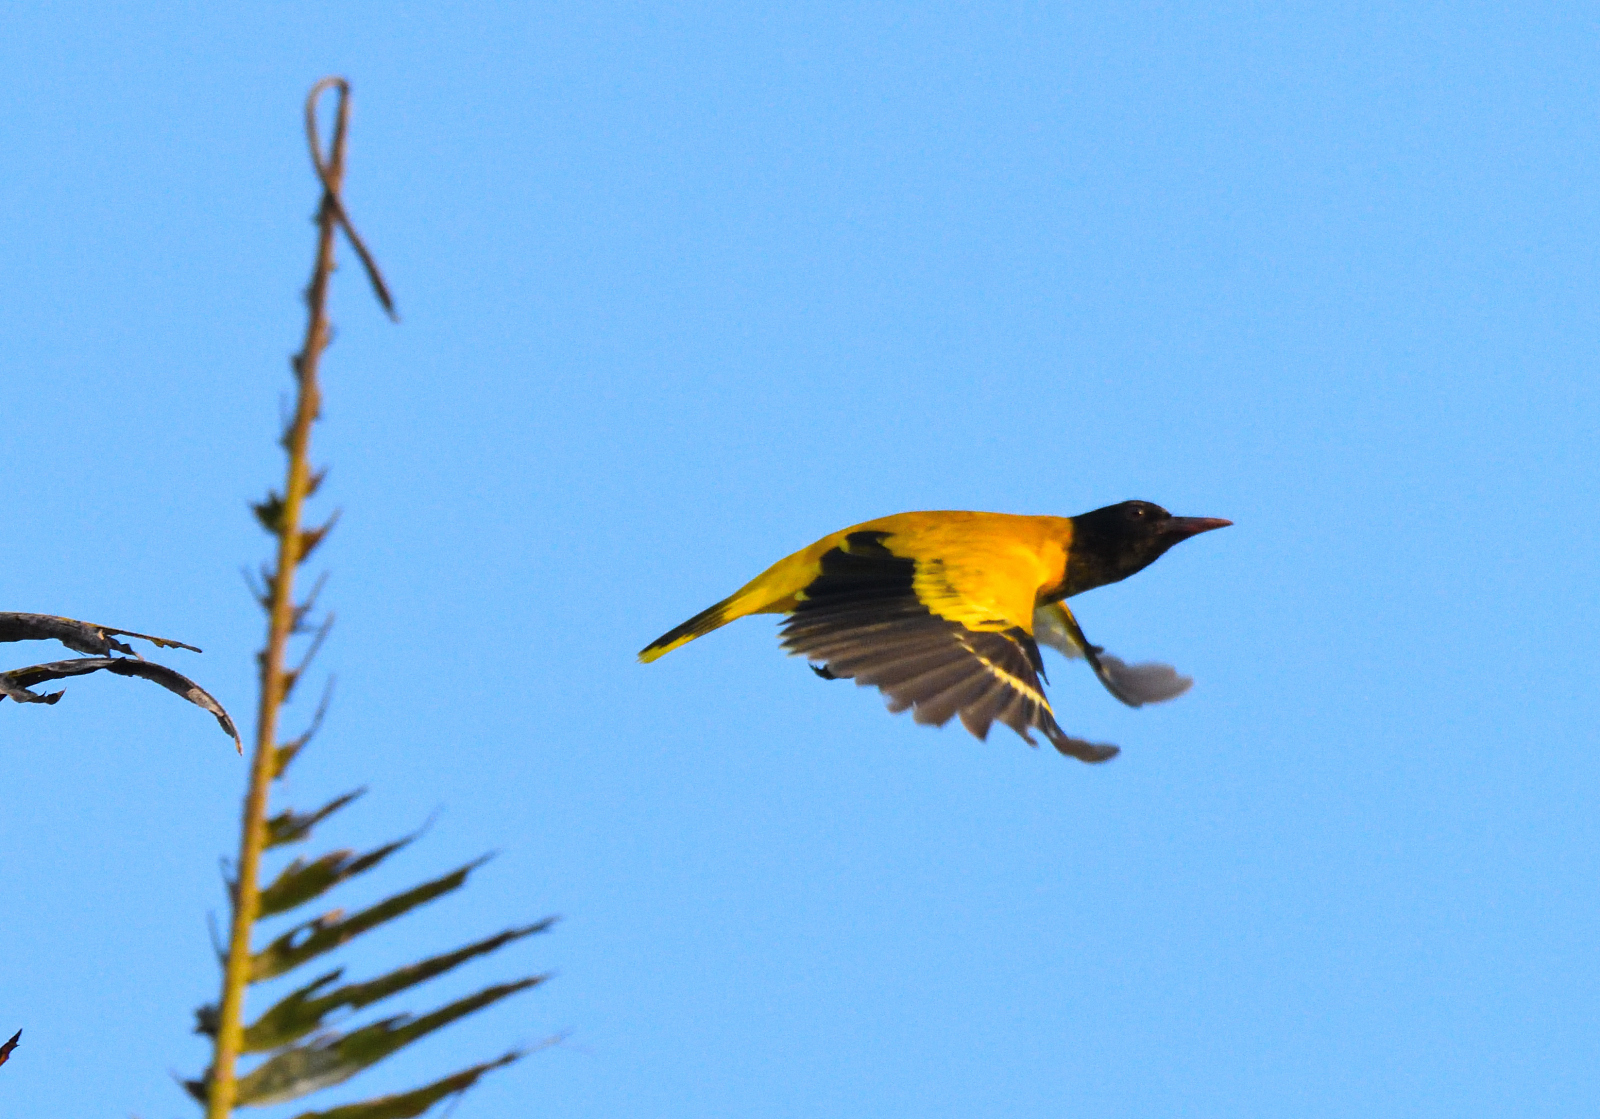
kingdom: Animalia
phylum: Chordata
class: Aves
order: Passeriformes
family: Oriolidae
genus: Oriolus
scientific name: Oriolus xanthornus
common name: Black-hooded oriole
